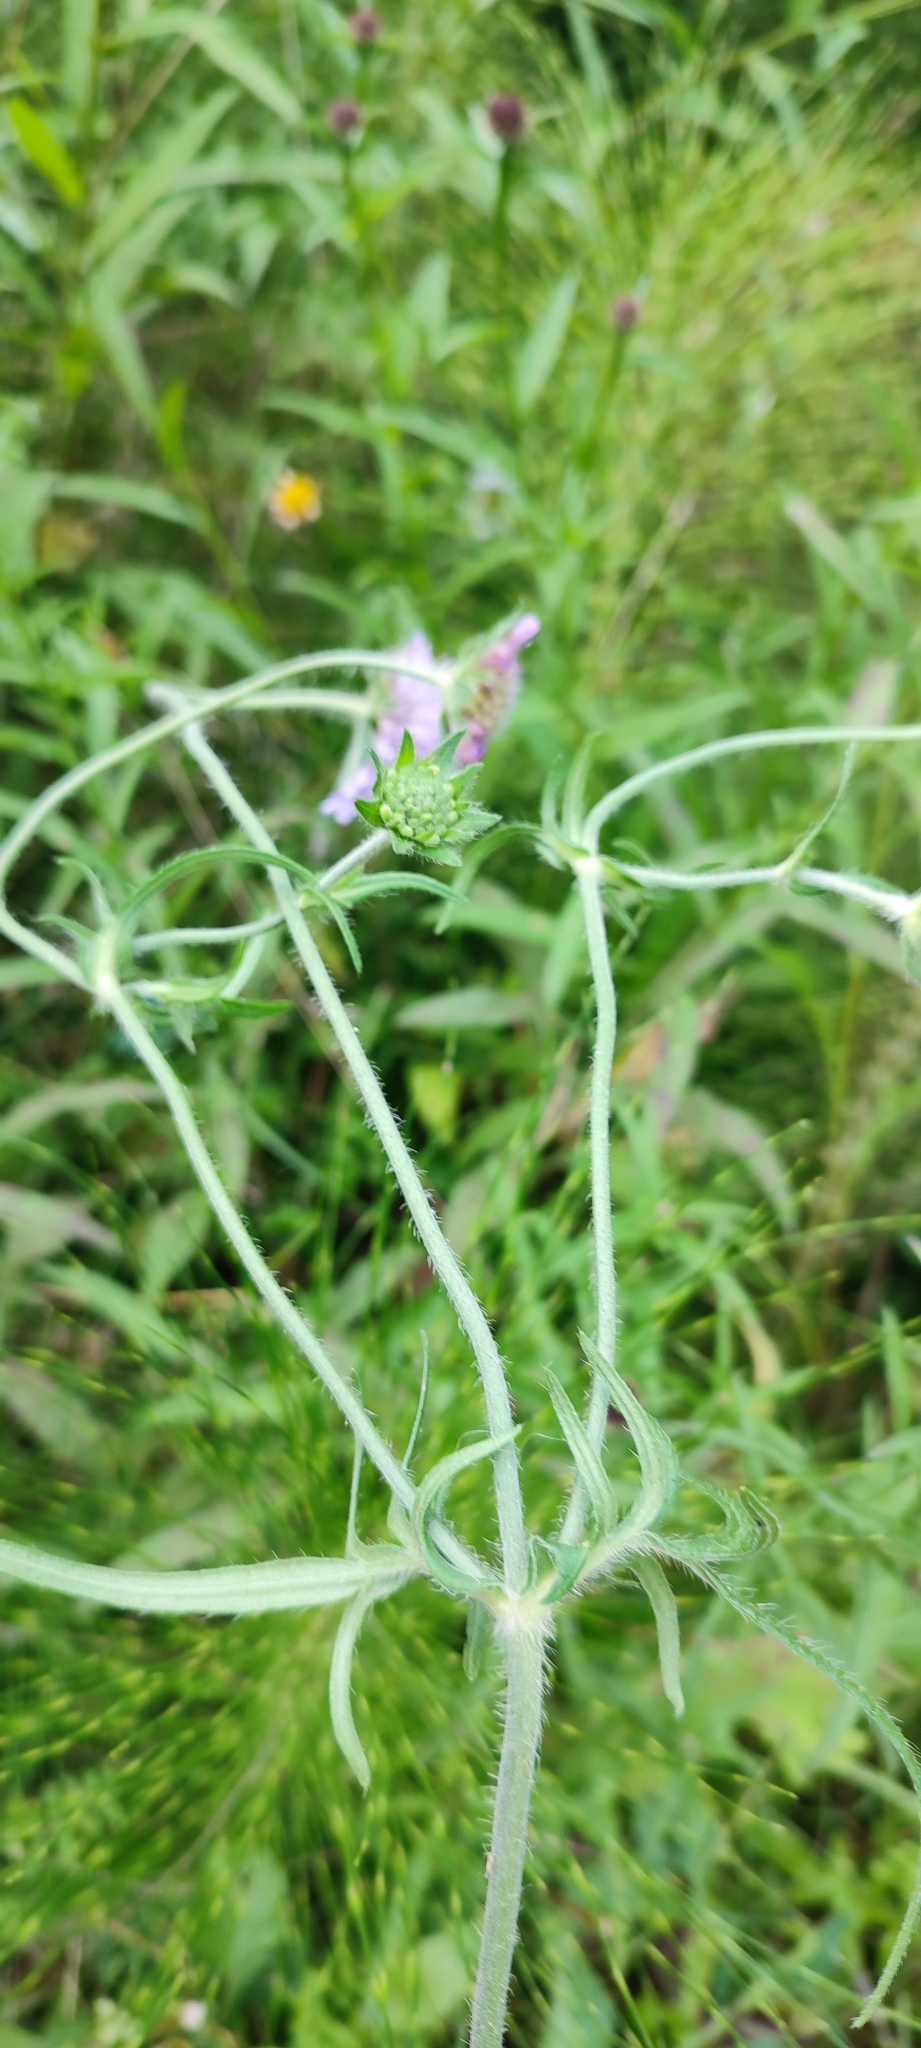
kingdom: Plantae
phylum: Tracheophyta
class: Magnoliopsida
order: Dipsacales
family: Caprifoliaceae
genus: Knautia
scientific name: Knautia arvensis
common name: Field scabiosa
